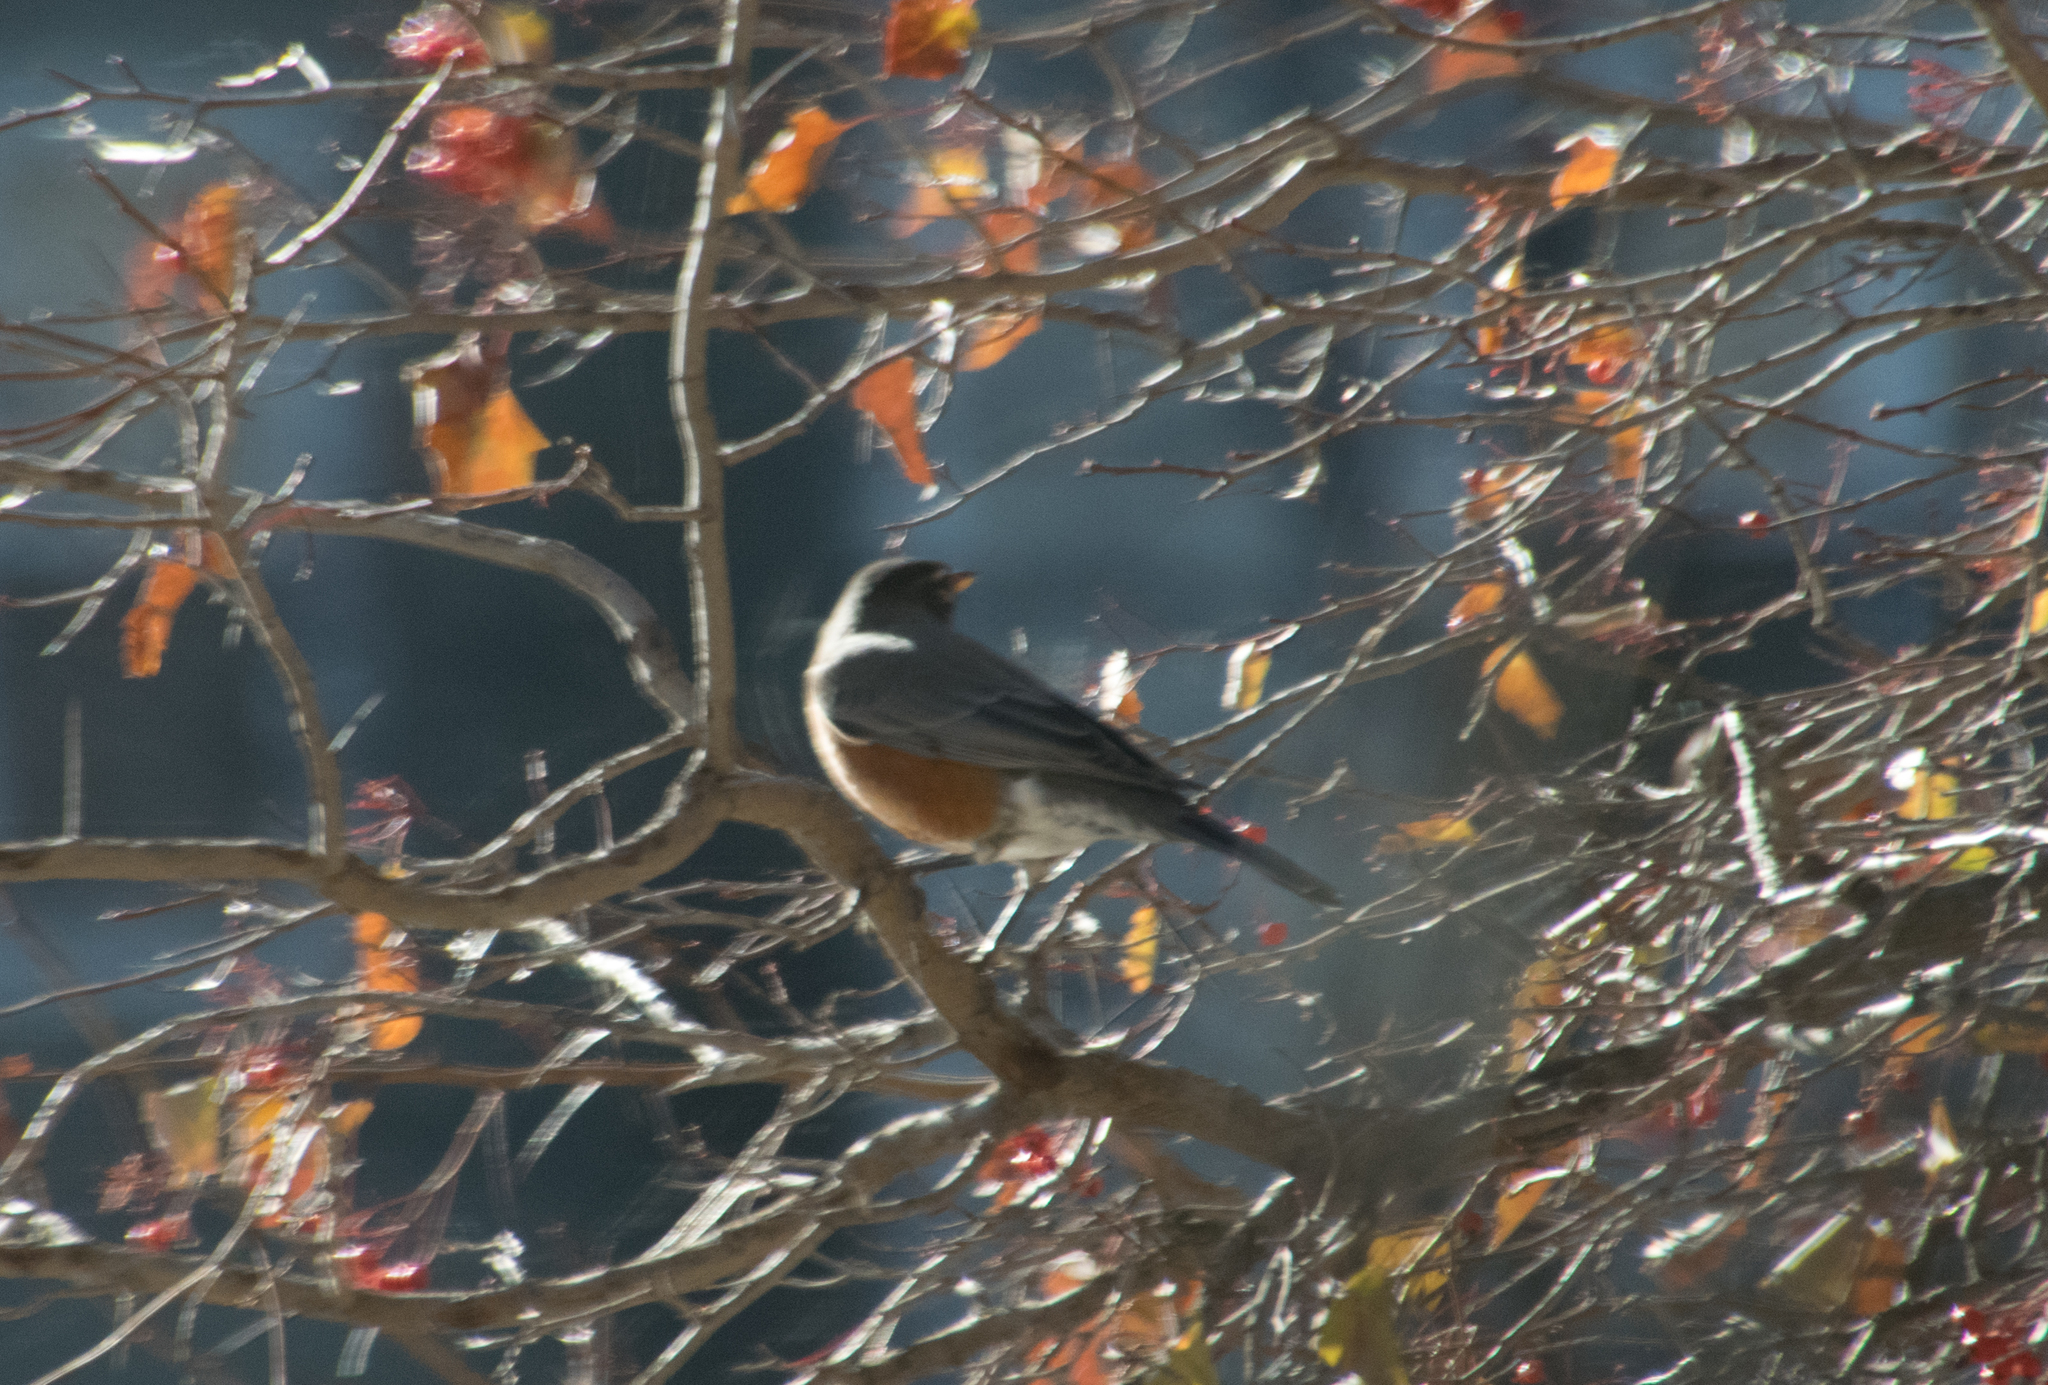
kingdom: Animalia
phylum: Chordata
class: Aves
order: Passeriformes
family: Turdidae
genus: Turdus
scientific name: Turdus migratorius
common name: American robin
